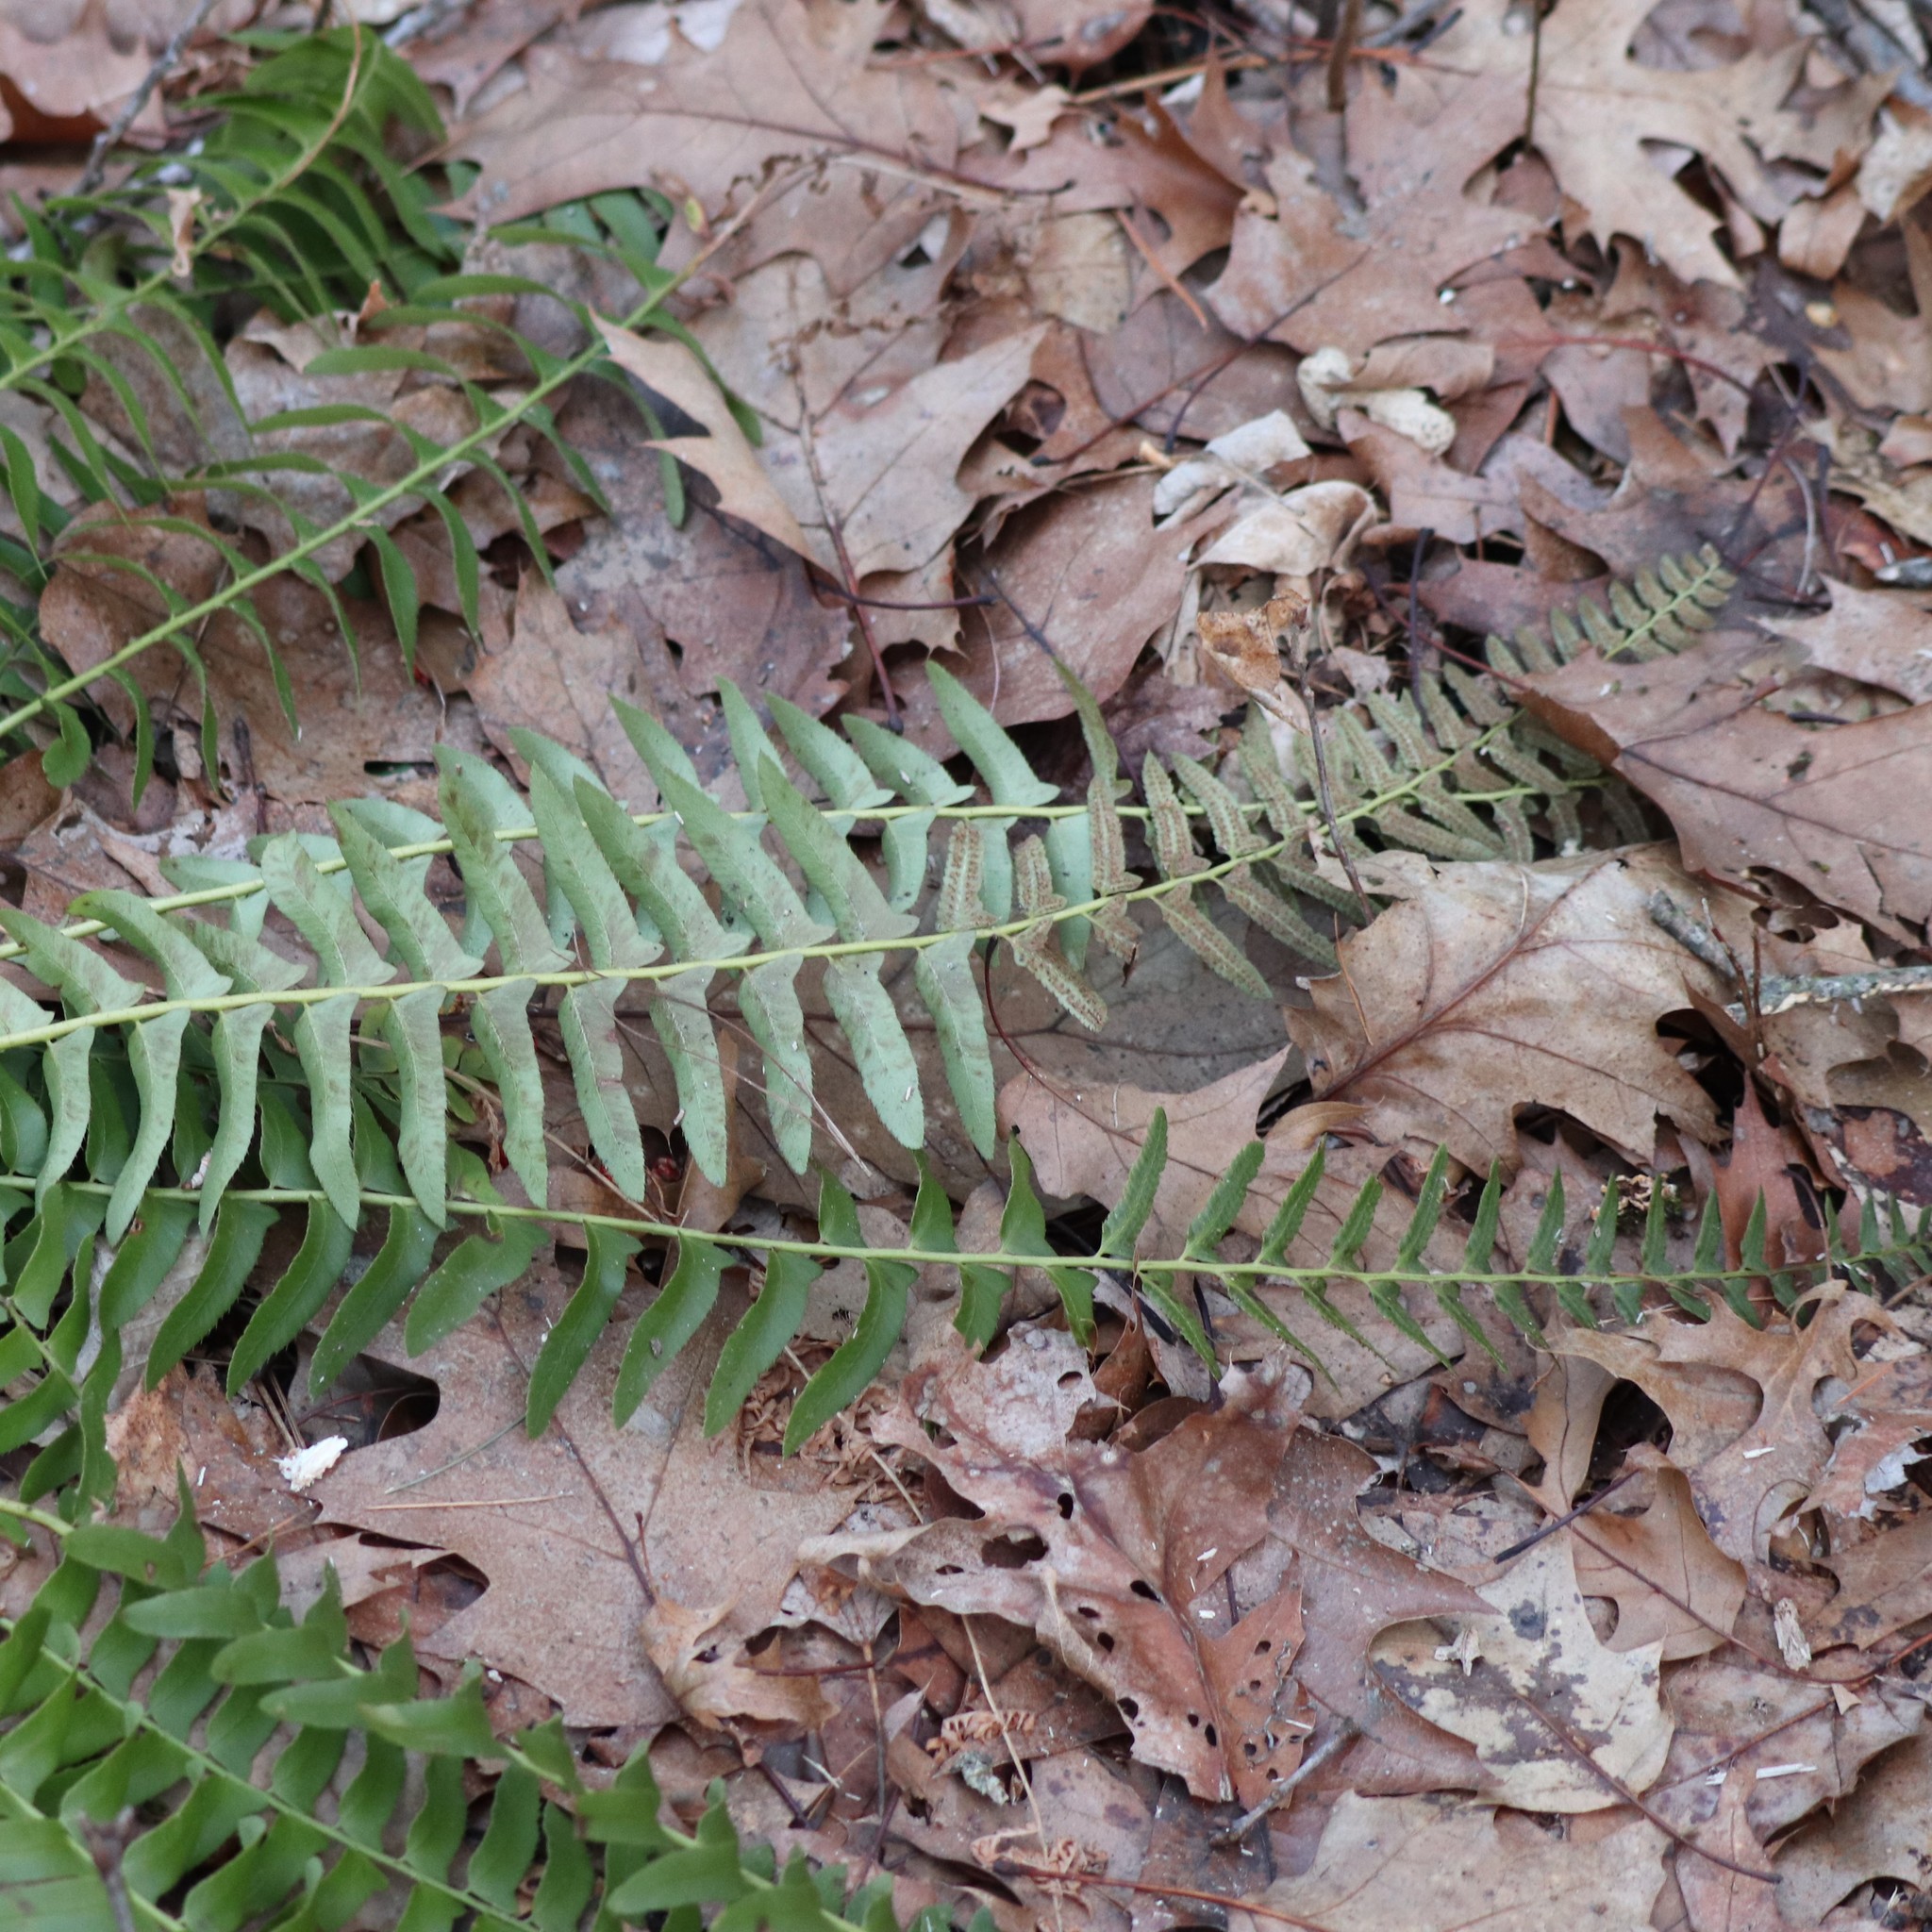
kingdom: Plantae
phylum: Tracheophyta
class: Polypodiopsida
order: Polypodiales
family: Dryopteridaceae
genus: Polystichum
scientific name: Polystichum acrostichoides
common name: Christmas fern
